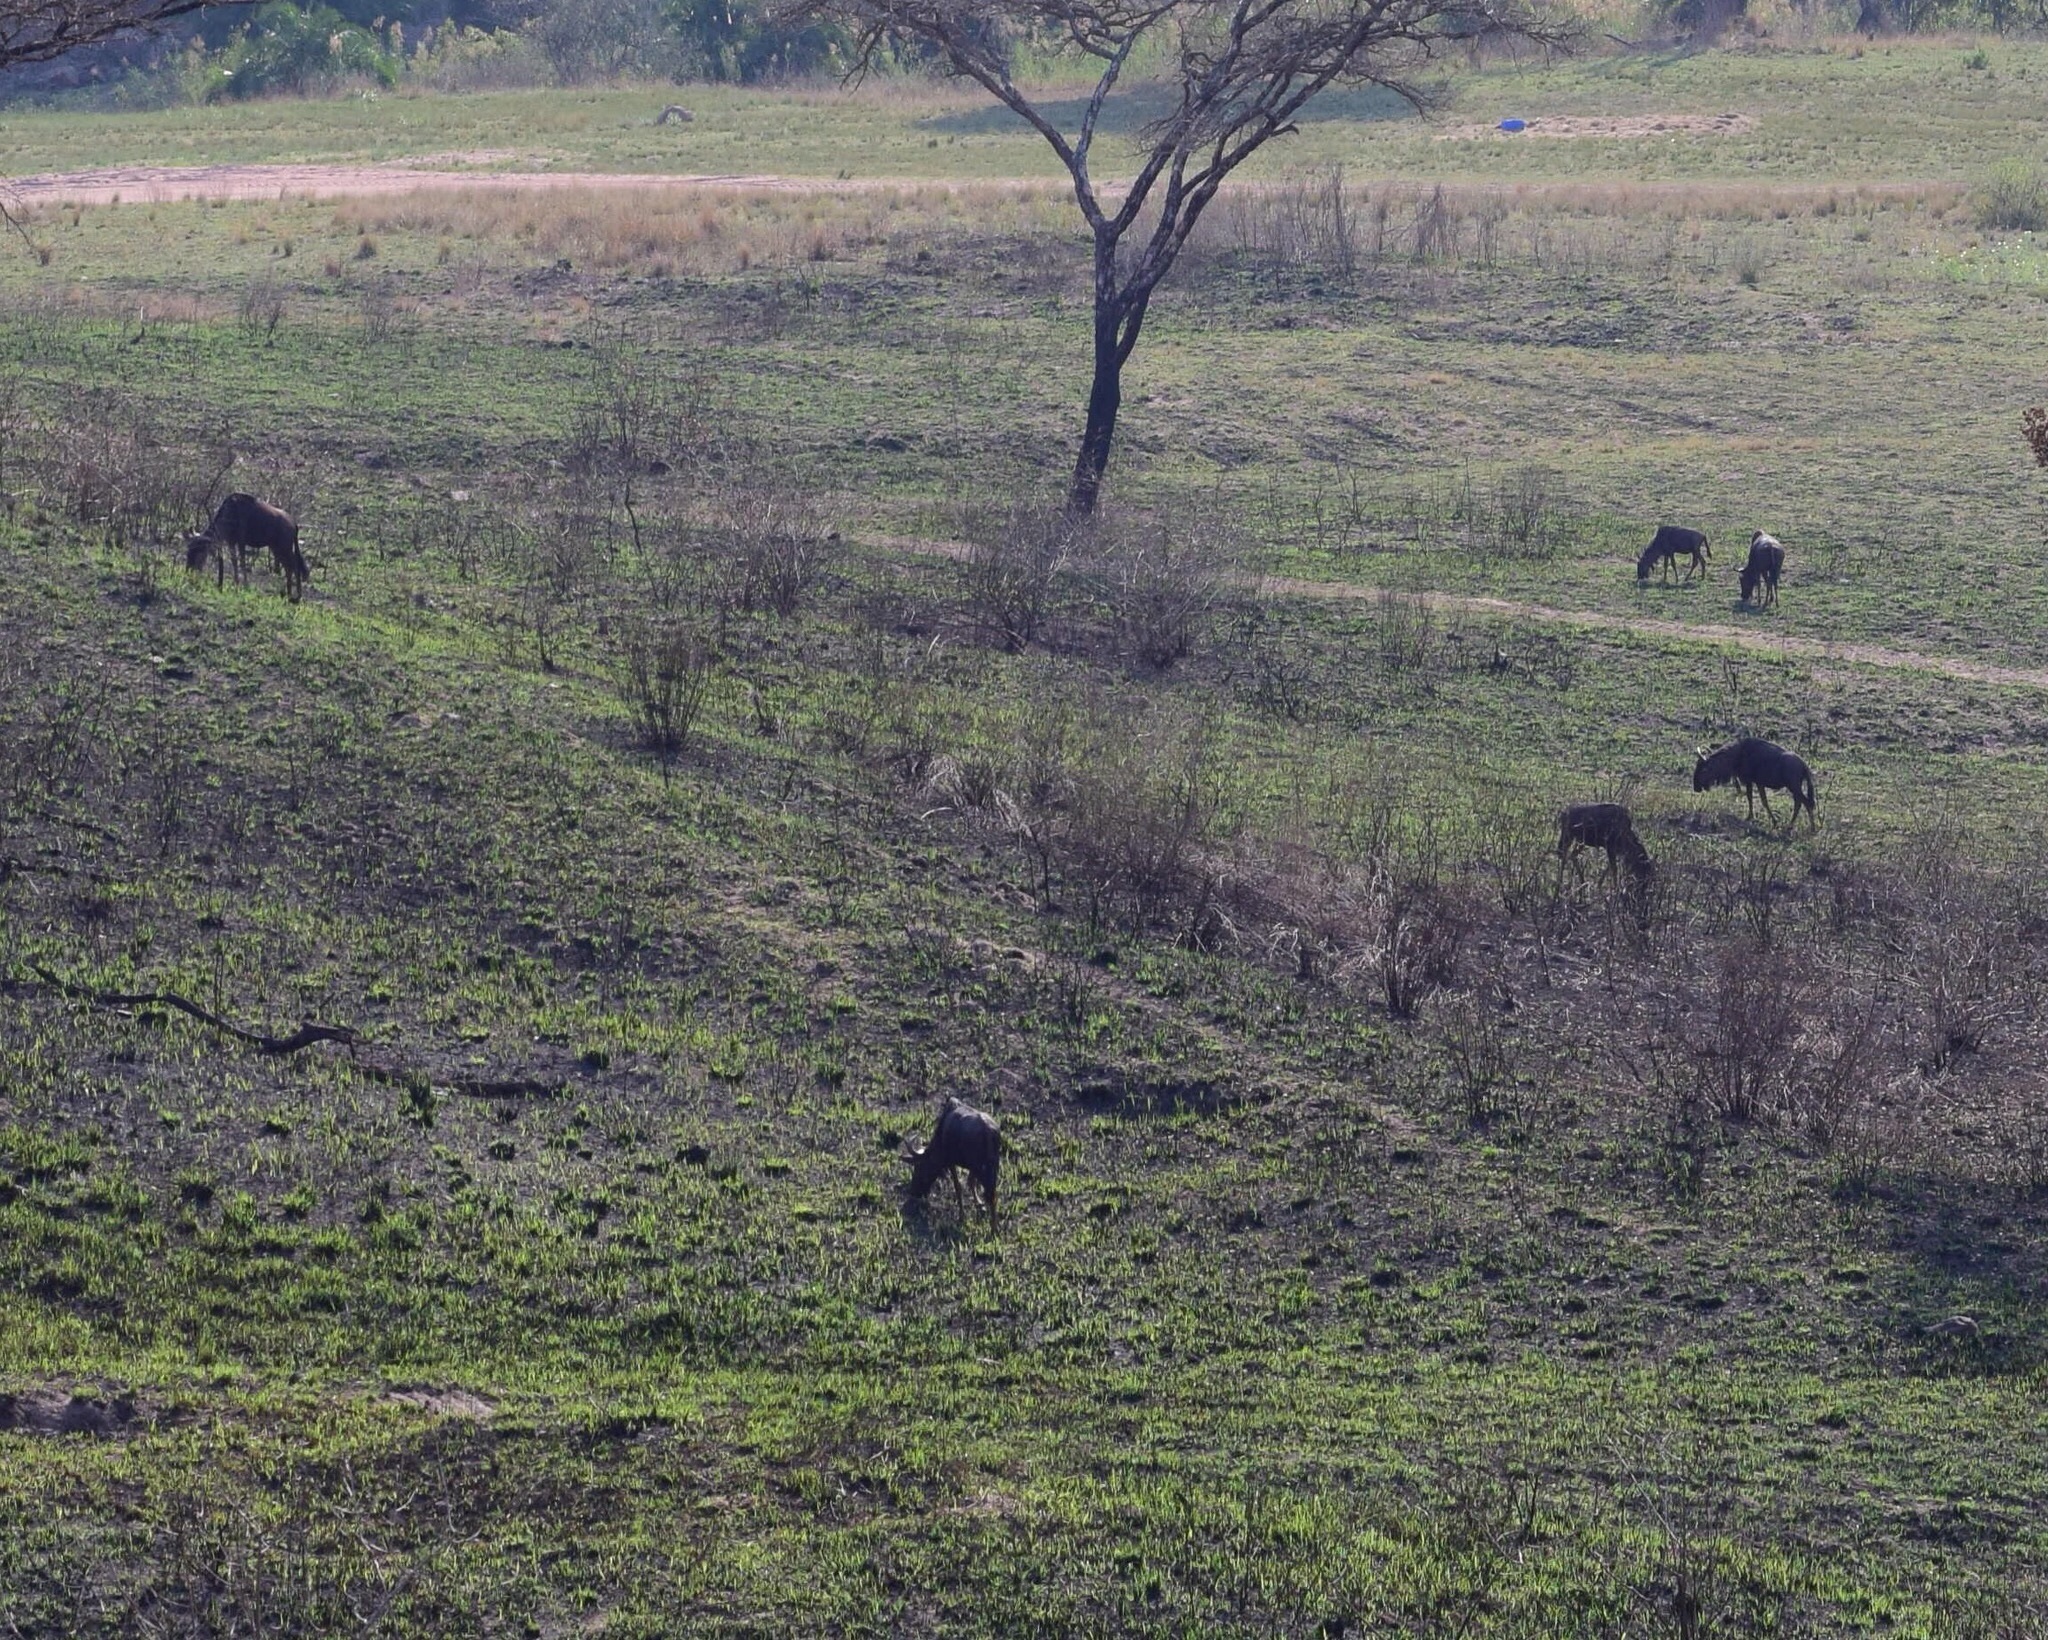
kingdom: Animalia
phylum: Chordata
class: Mammalia
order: Artiodactyla
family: Bovidae
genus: Connochaetes
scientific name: Connochaetes taurinus
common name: Blue wildebeest
